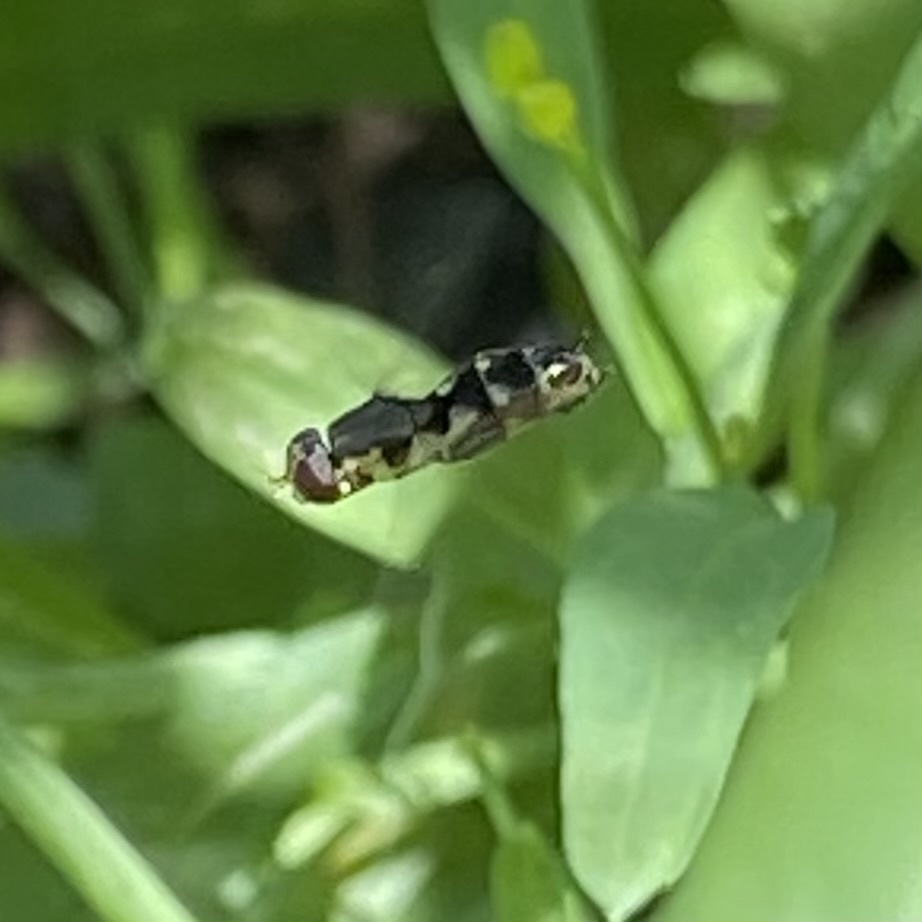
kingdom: Animalia
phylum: Arthropoda
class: Insecta
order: Diptera
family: Syrphidae
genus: Syritta
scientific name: Syritta pipiens
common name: Hover fly
